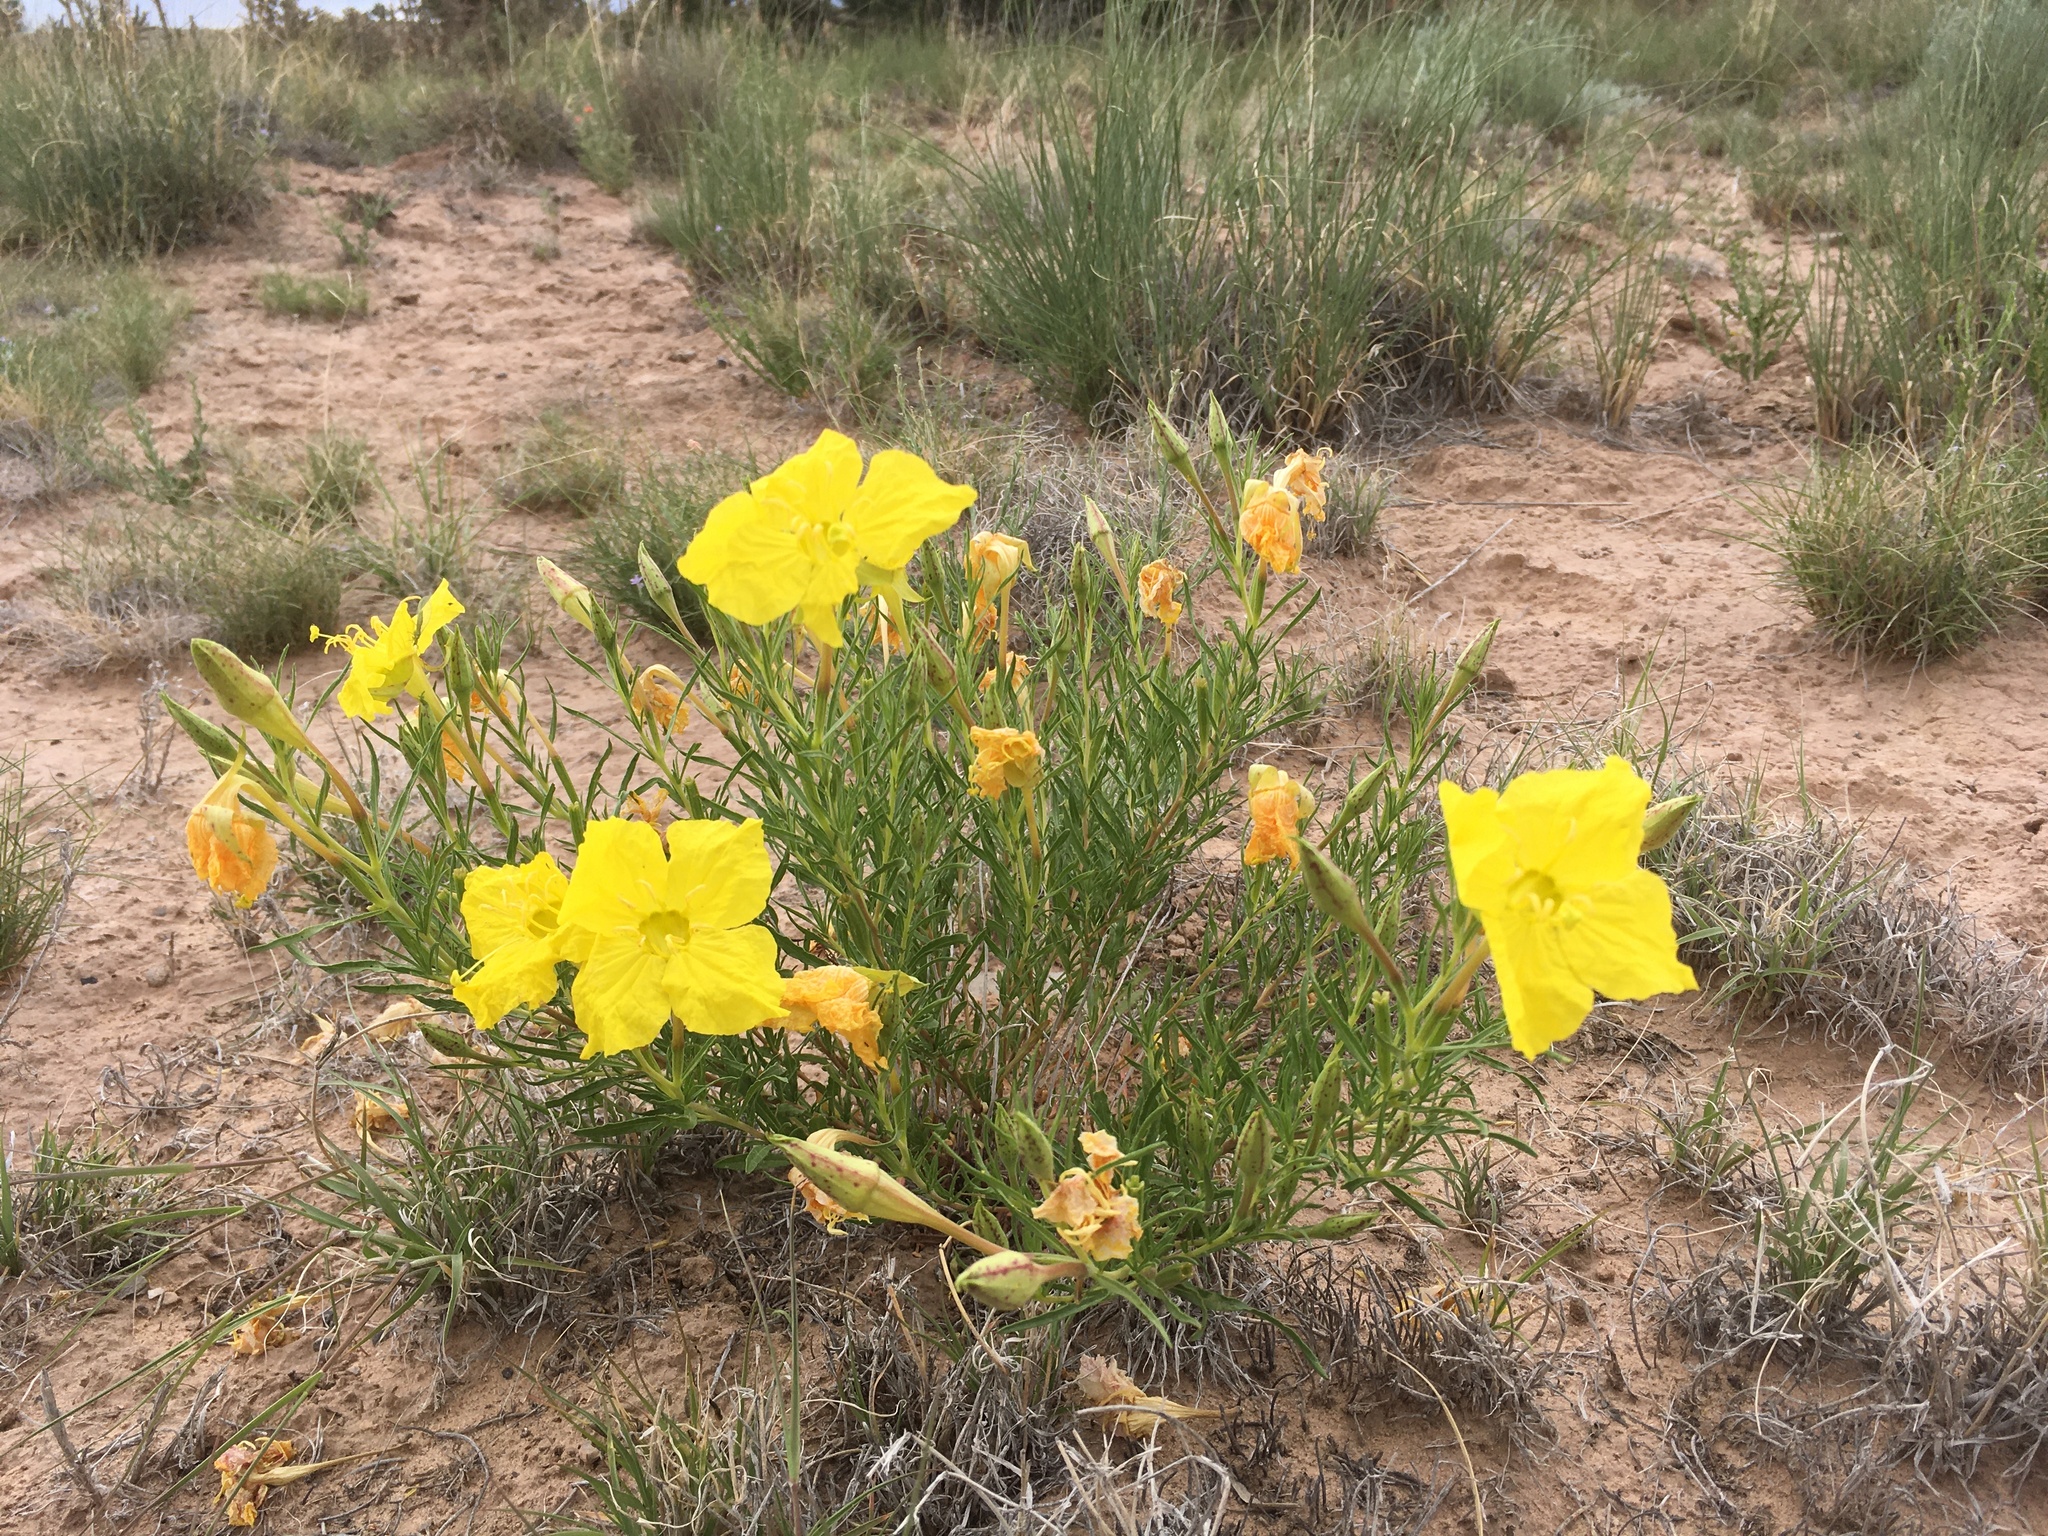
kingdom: Plantae
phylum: Tracheophyta
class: Magnoliopsida
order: Myrtales
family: Onagraceae
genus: Oenothera
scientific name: Oenothera hartwegii
